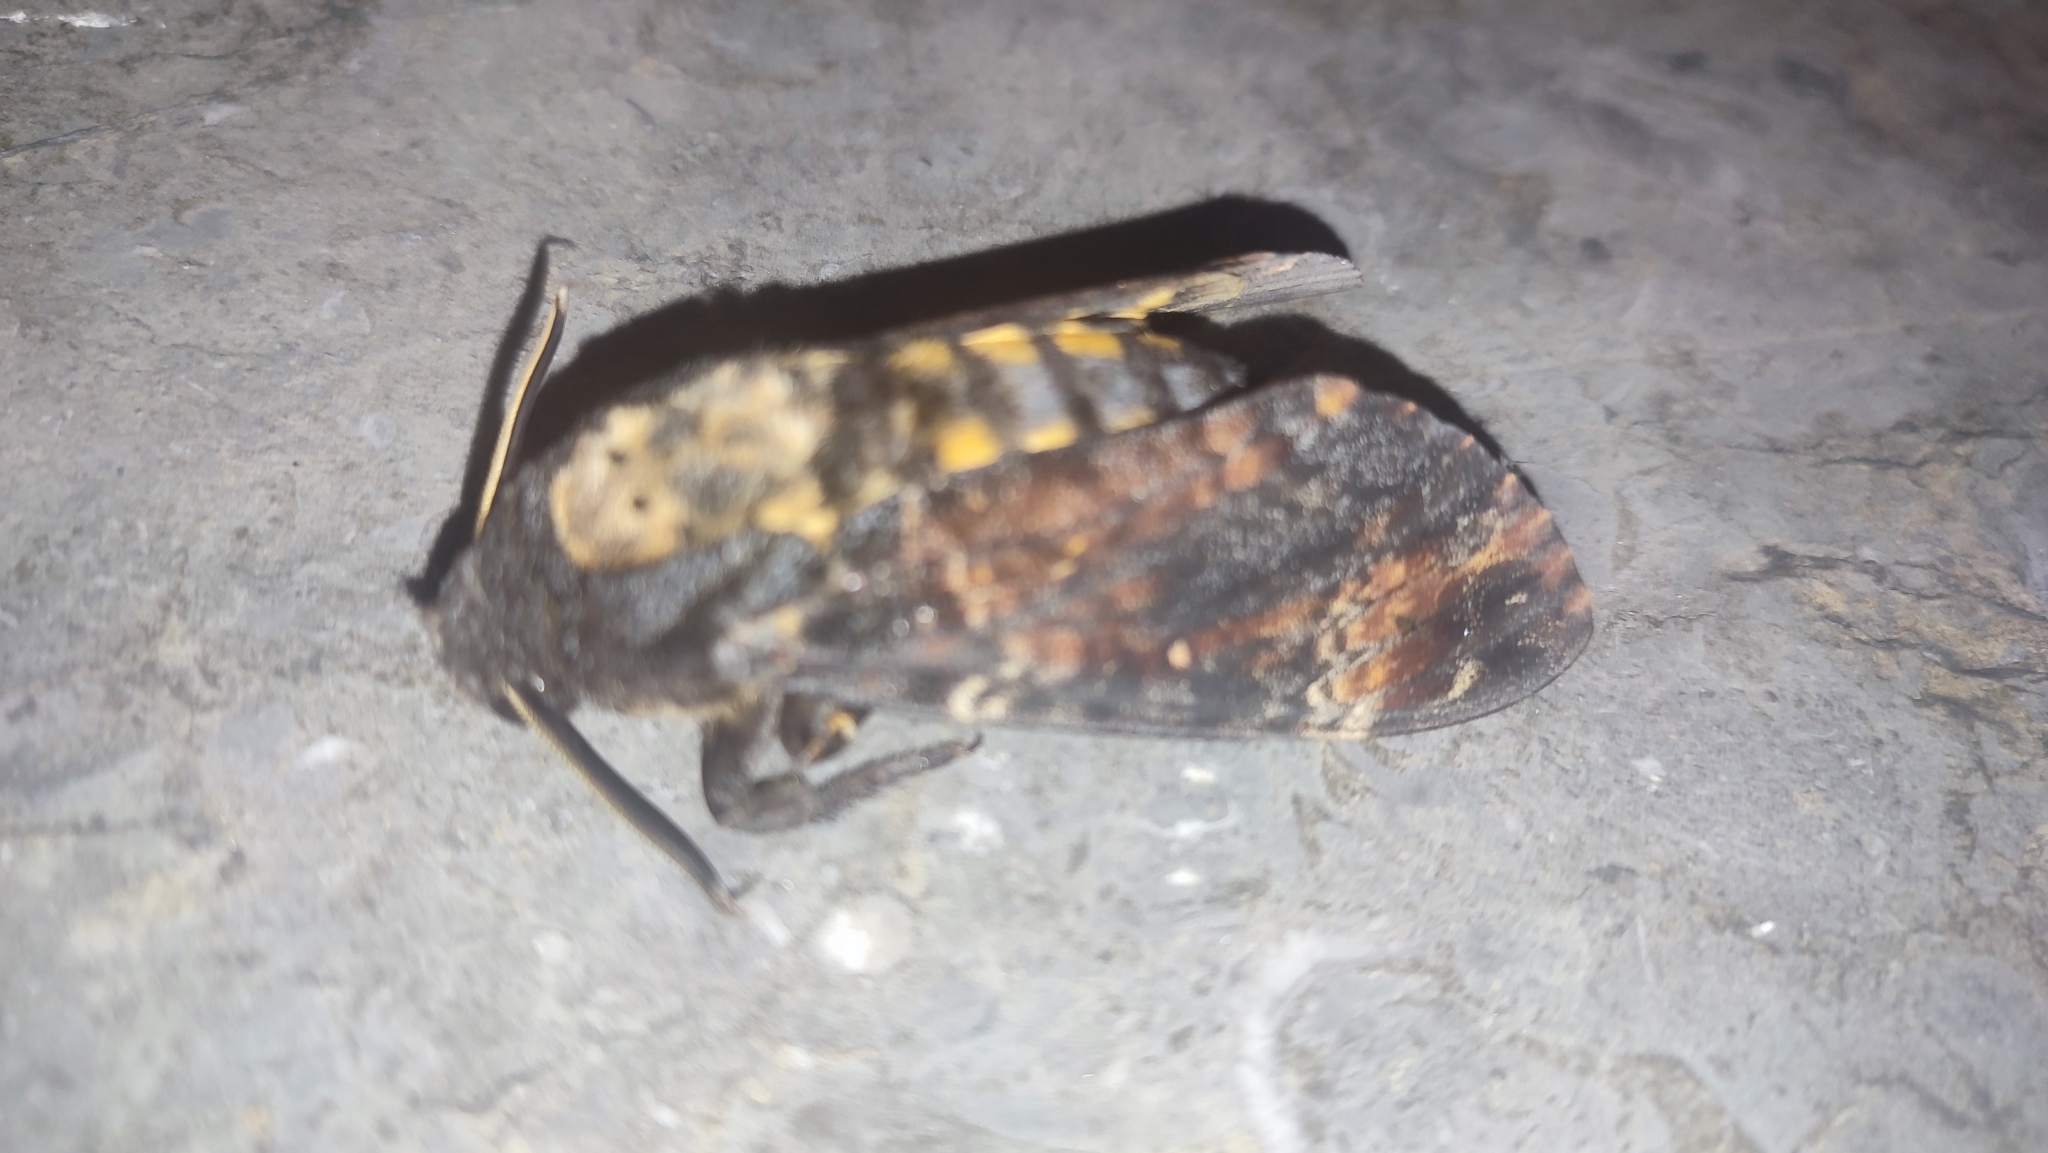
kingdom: Animalia
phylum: Arthropoda
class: Insecta
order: Lepidoptera
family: Sphingidae
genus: Acherontia
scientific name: Acherontia atropos
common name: Death's-head hawk moth
